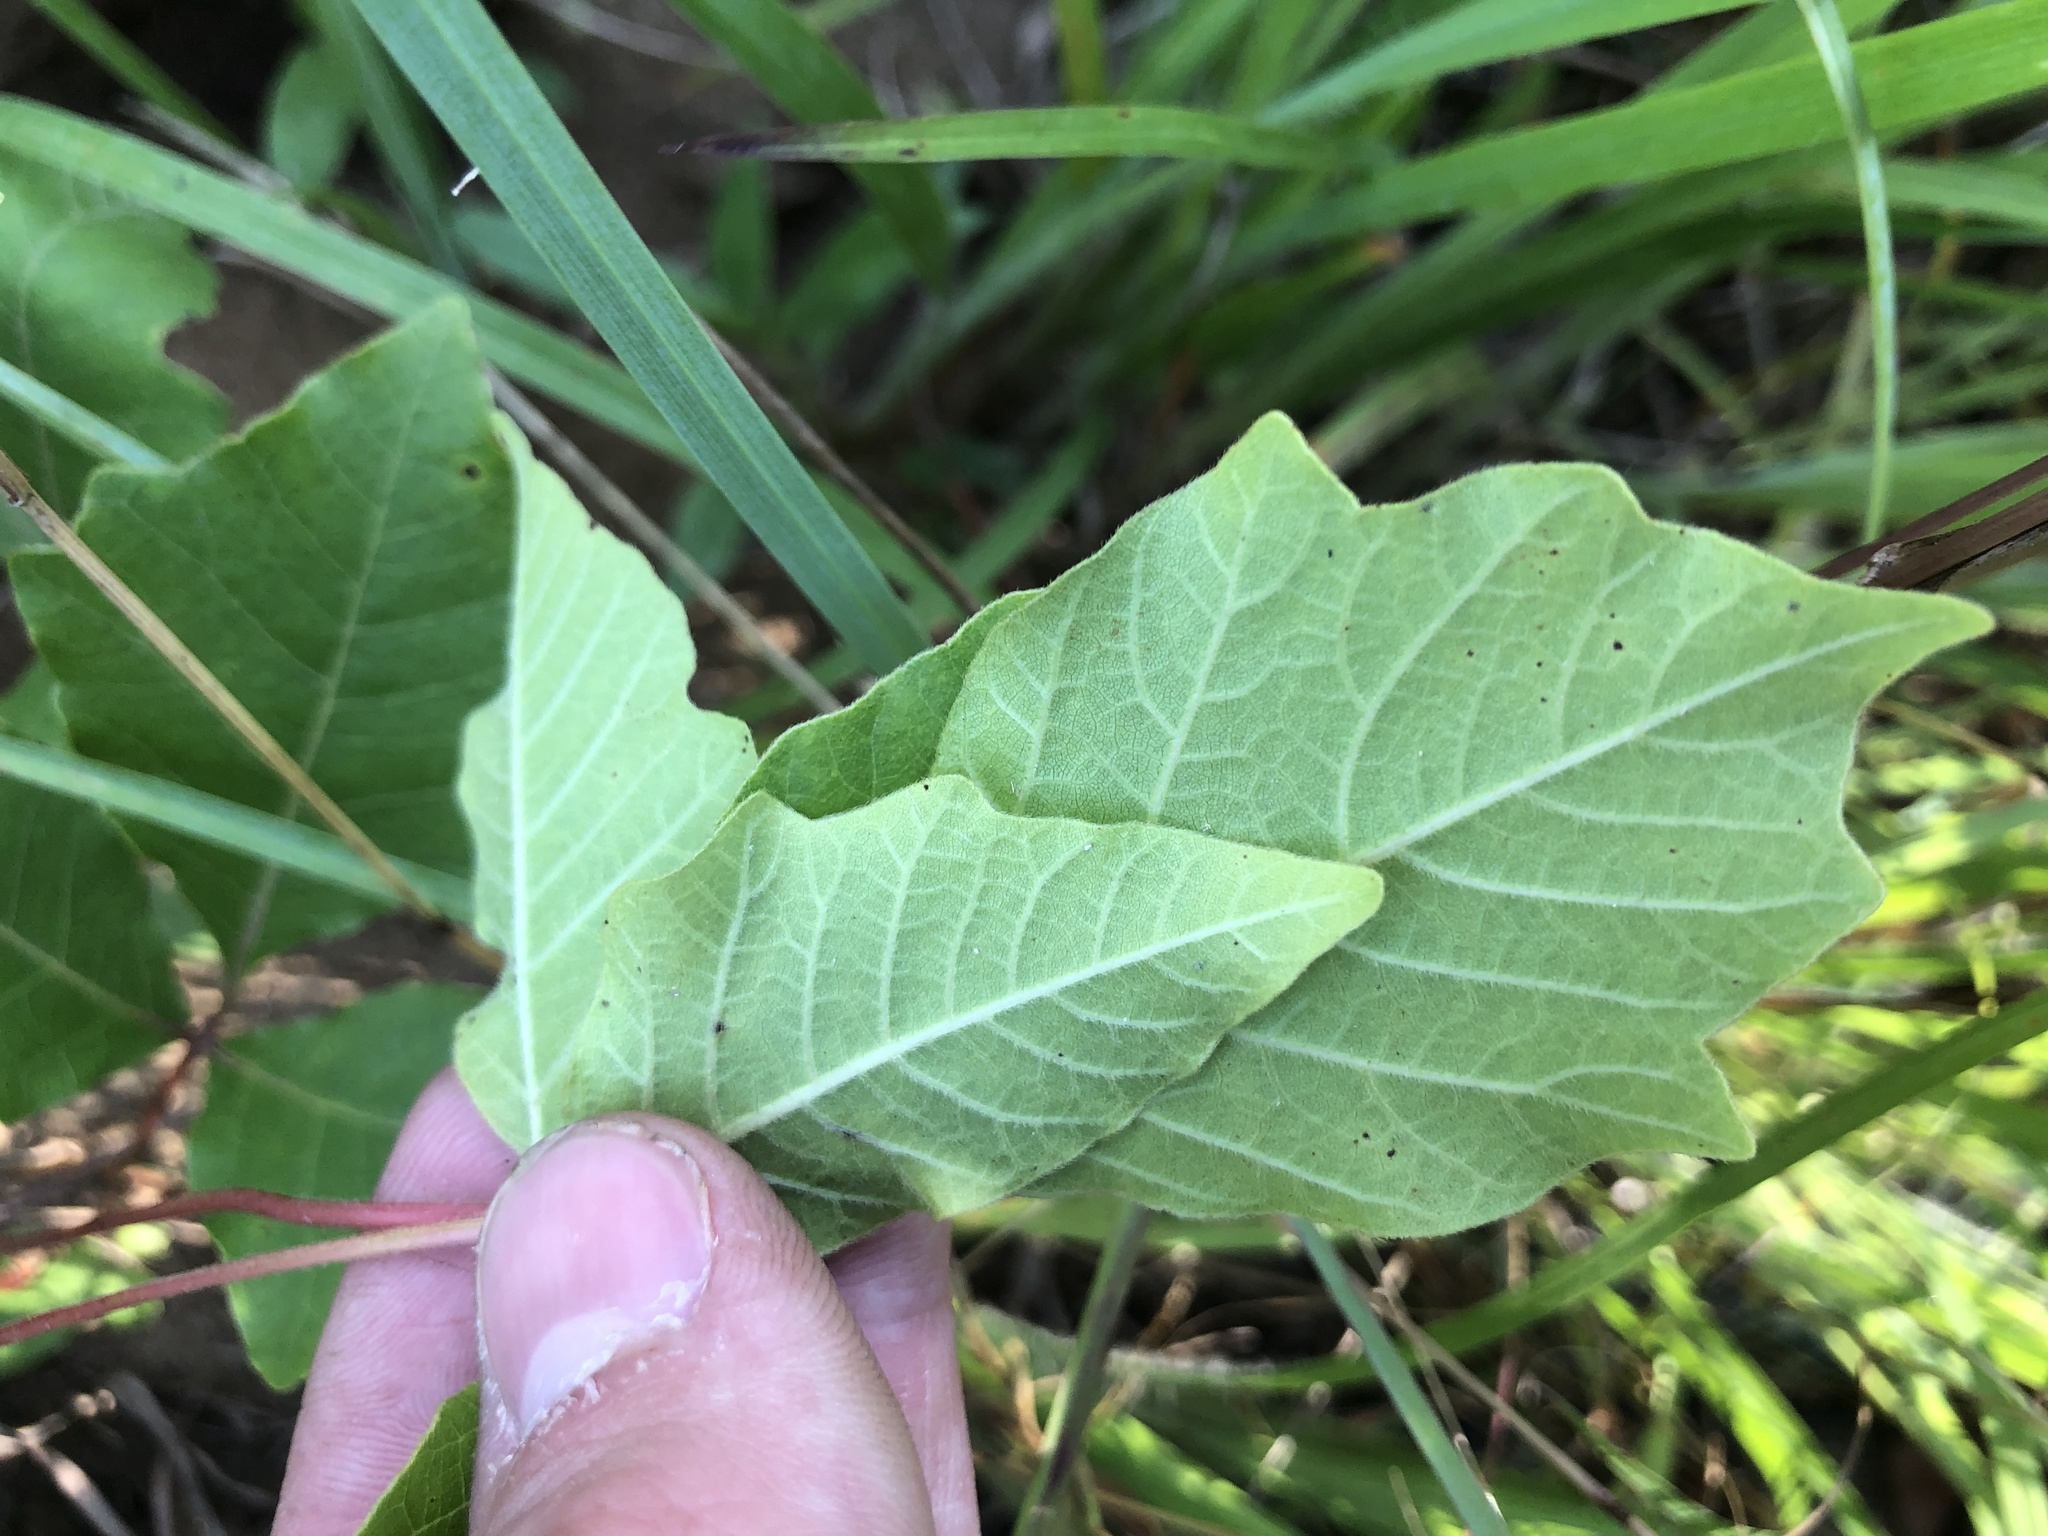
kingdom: Plantae
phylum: Tracheophyta
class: Magnoliopsida
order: Sapindales
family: Anacardiaceae
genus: Toxicodendron
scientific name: Toxicodendron pubescens
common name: Eastern poison-oak
